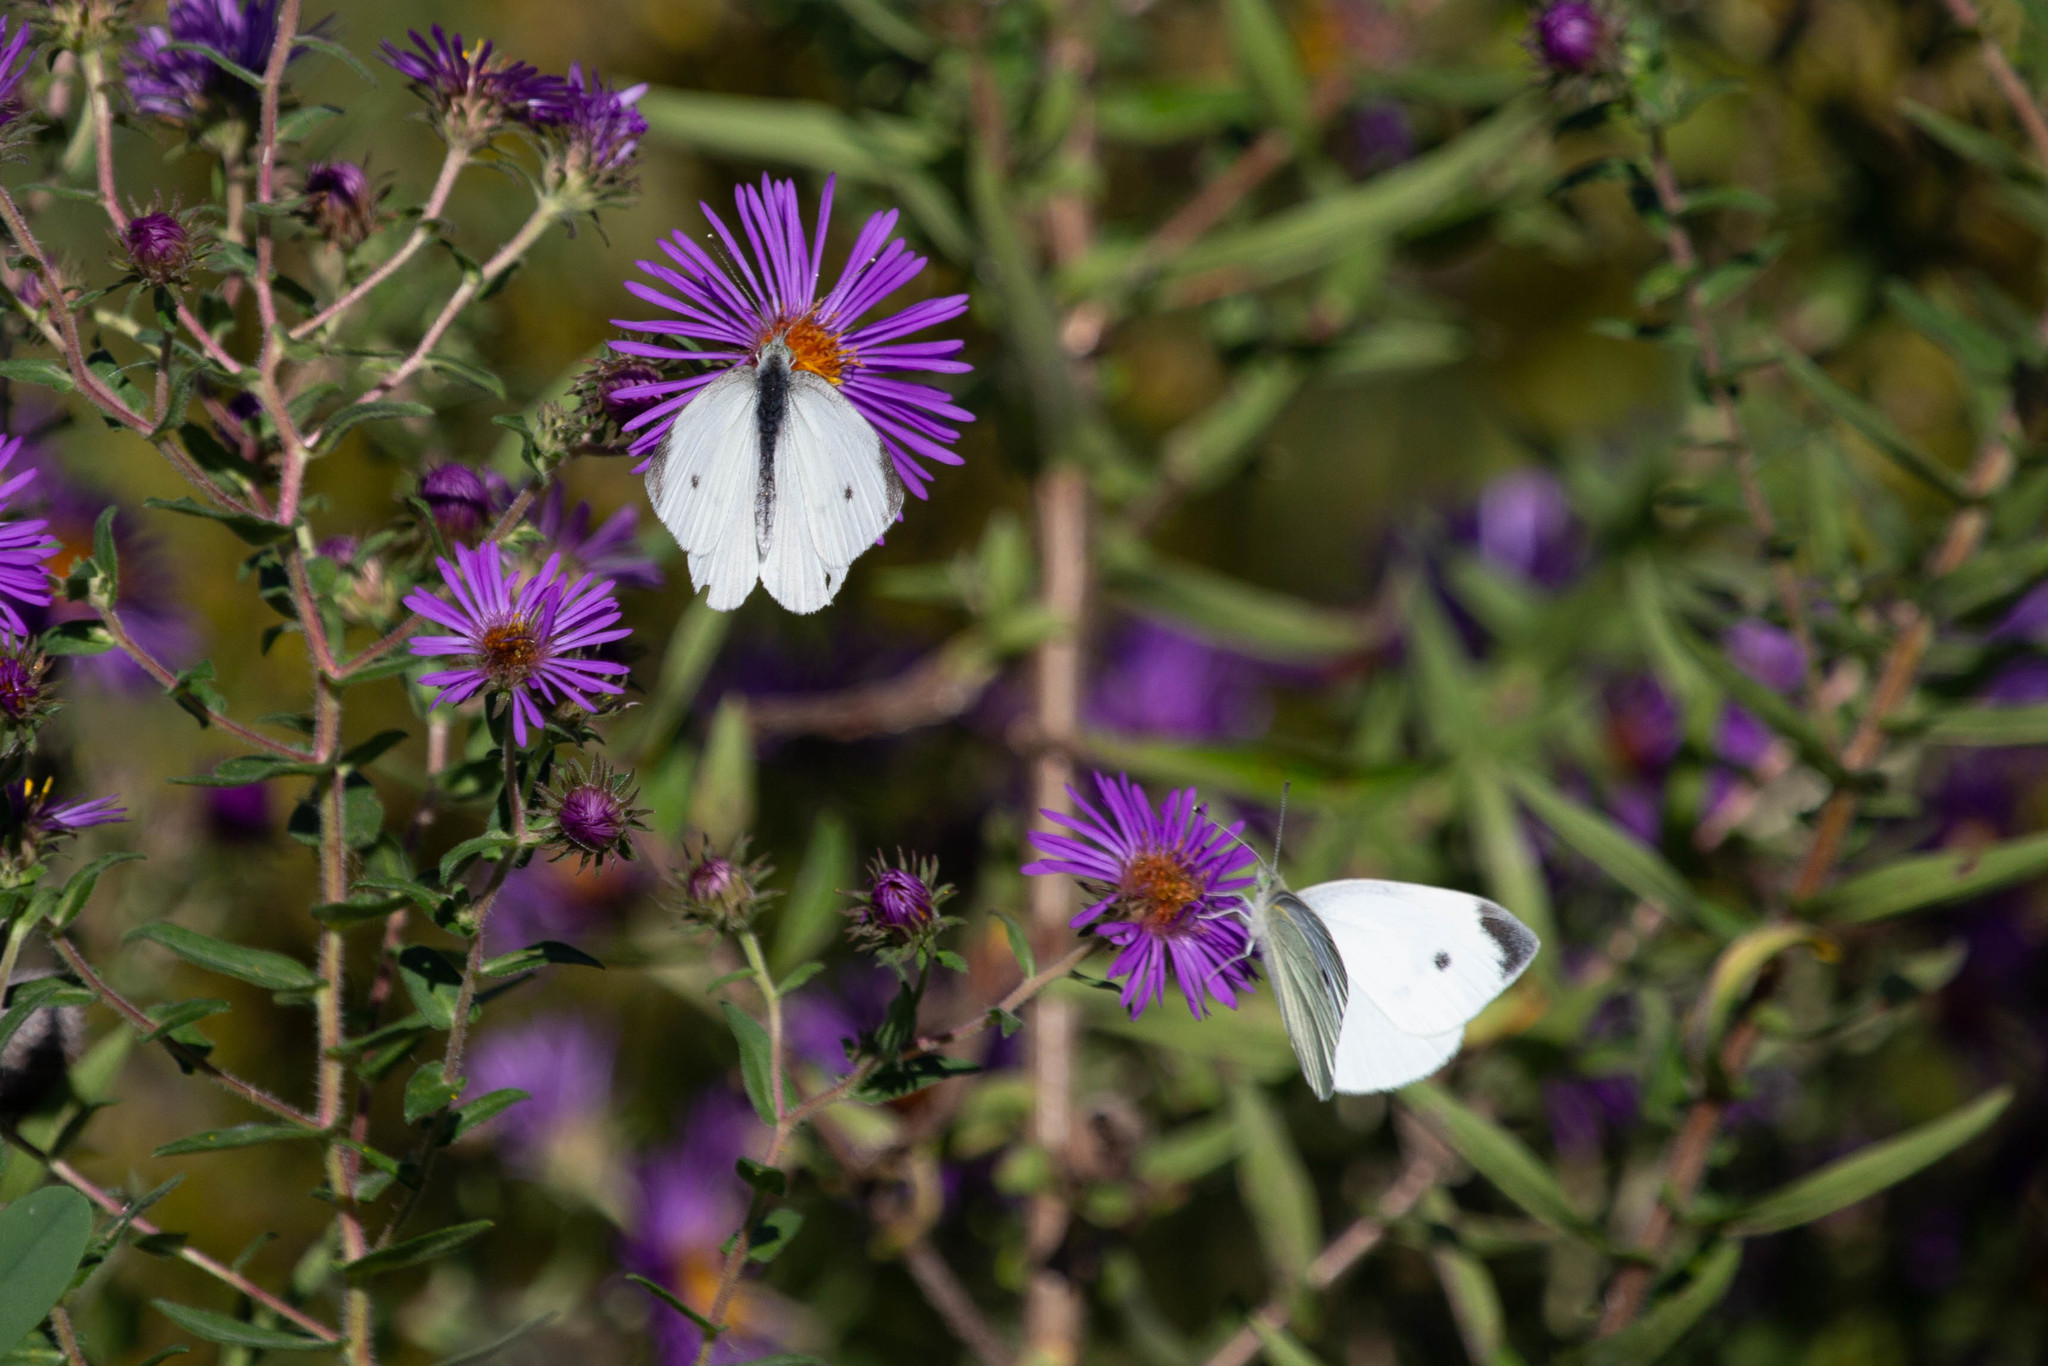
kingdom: Animalia
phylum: Arthropoda
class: Insecta
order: Lepidoptera
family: Pieridae
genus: Pieris
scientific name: Pieris rapae
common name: Small white
